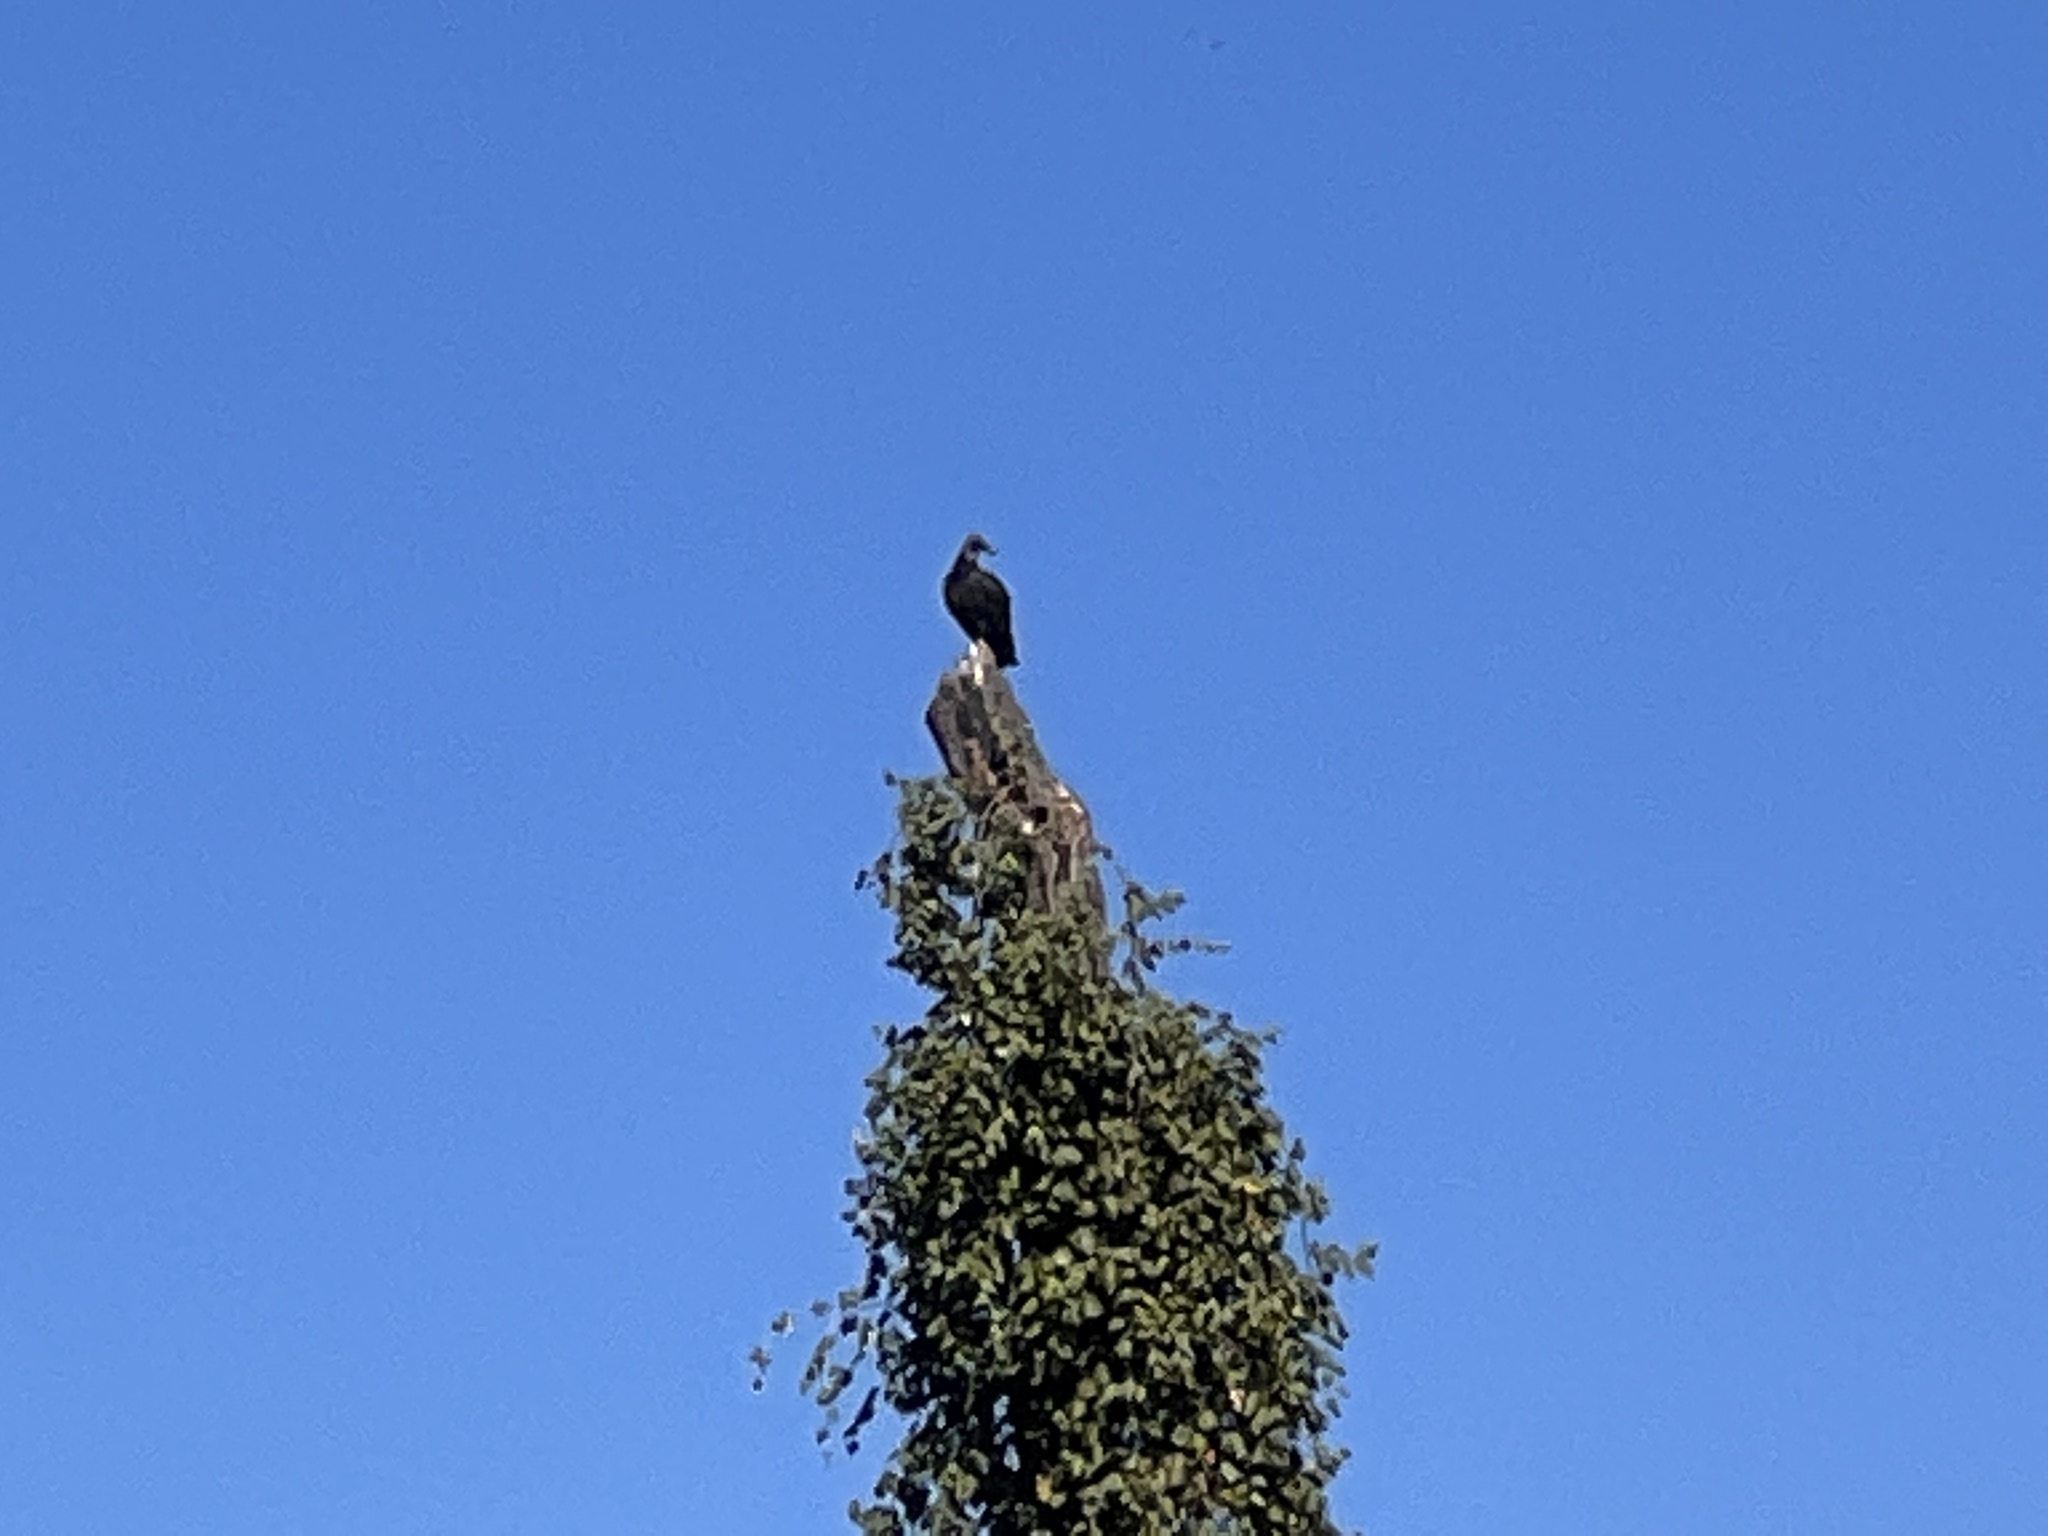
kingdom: Animalia
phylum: Chordata
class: Aves
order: Accipitriformes
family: Cathartidae
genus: Coragyps
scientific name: Coragyps atratus
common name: Black vulture
